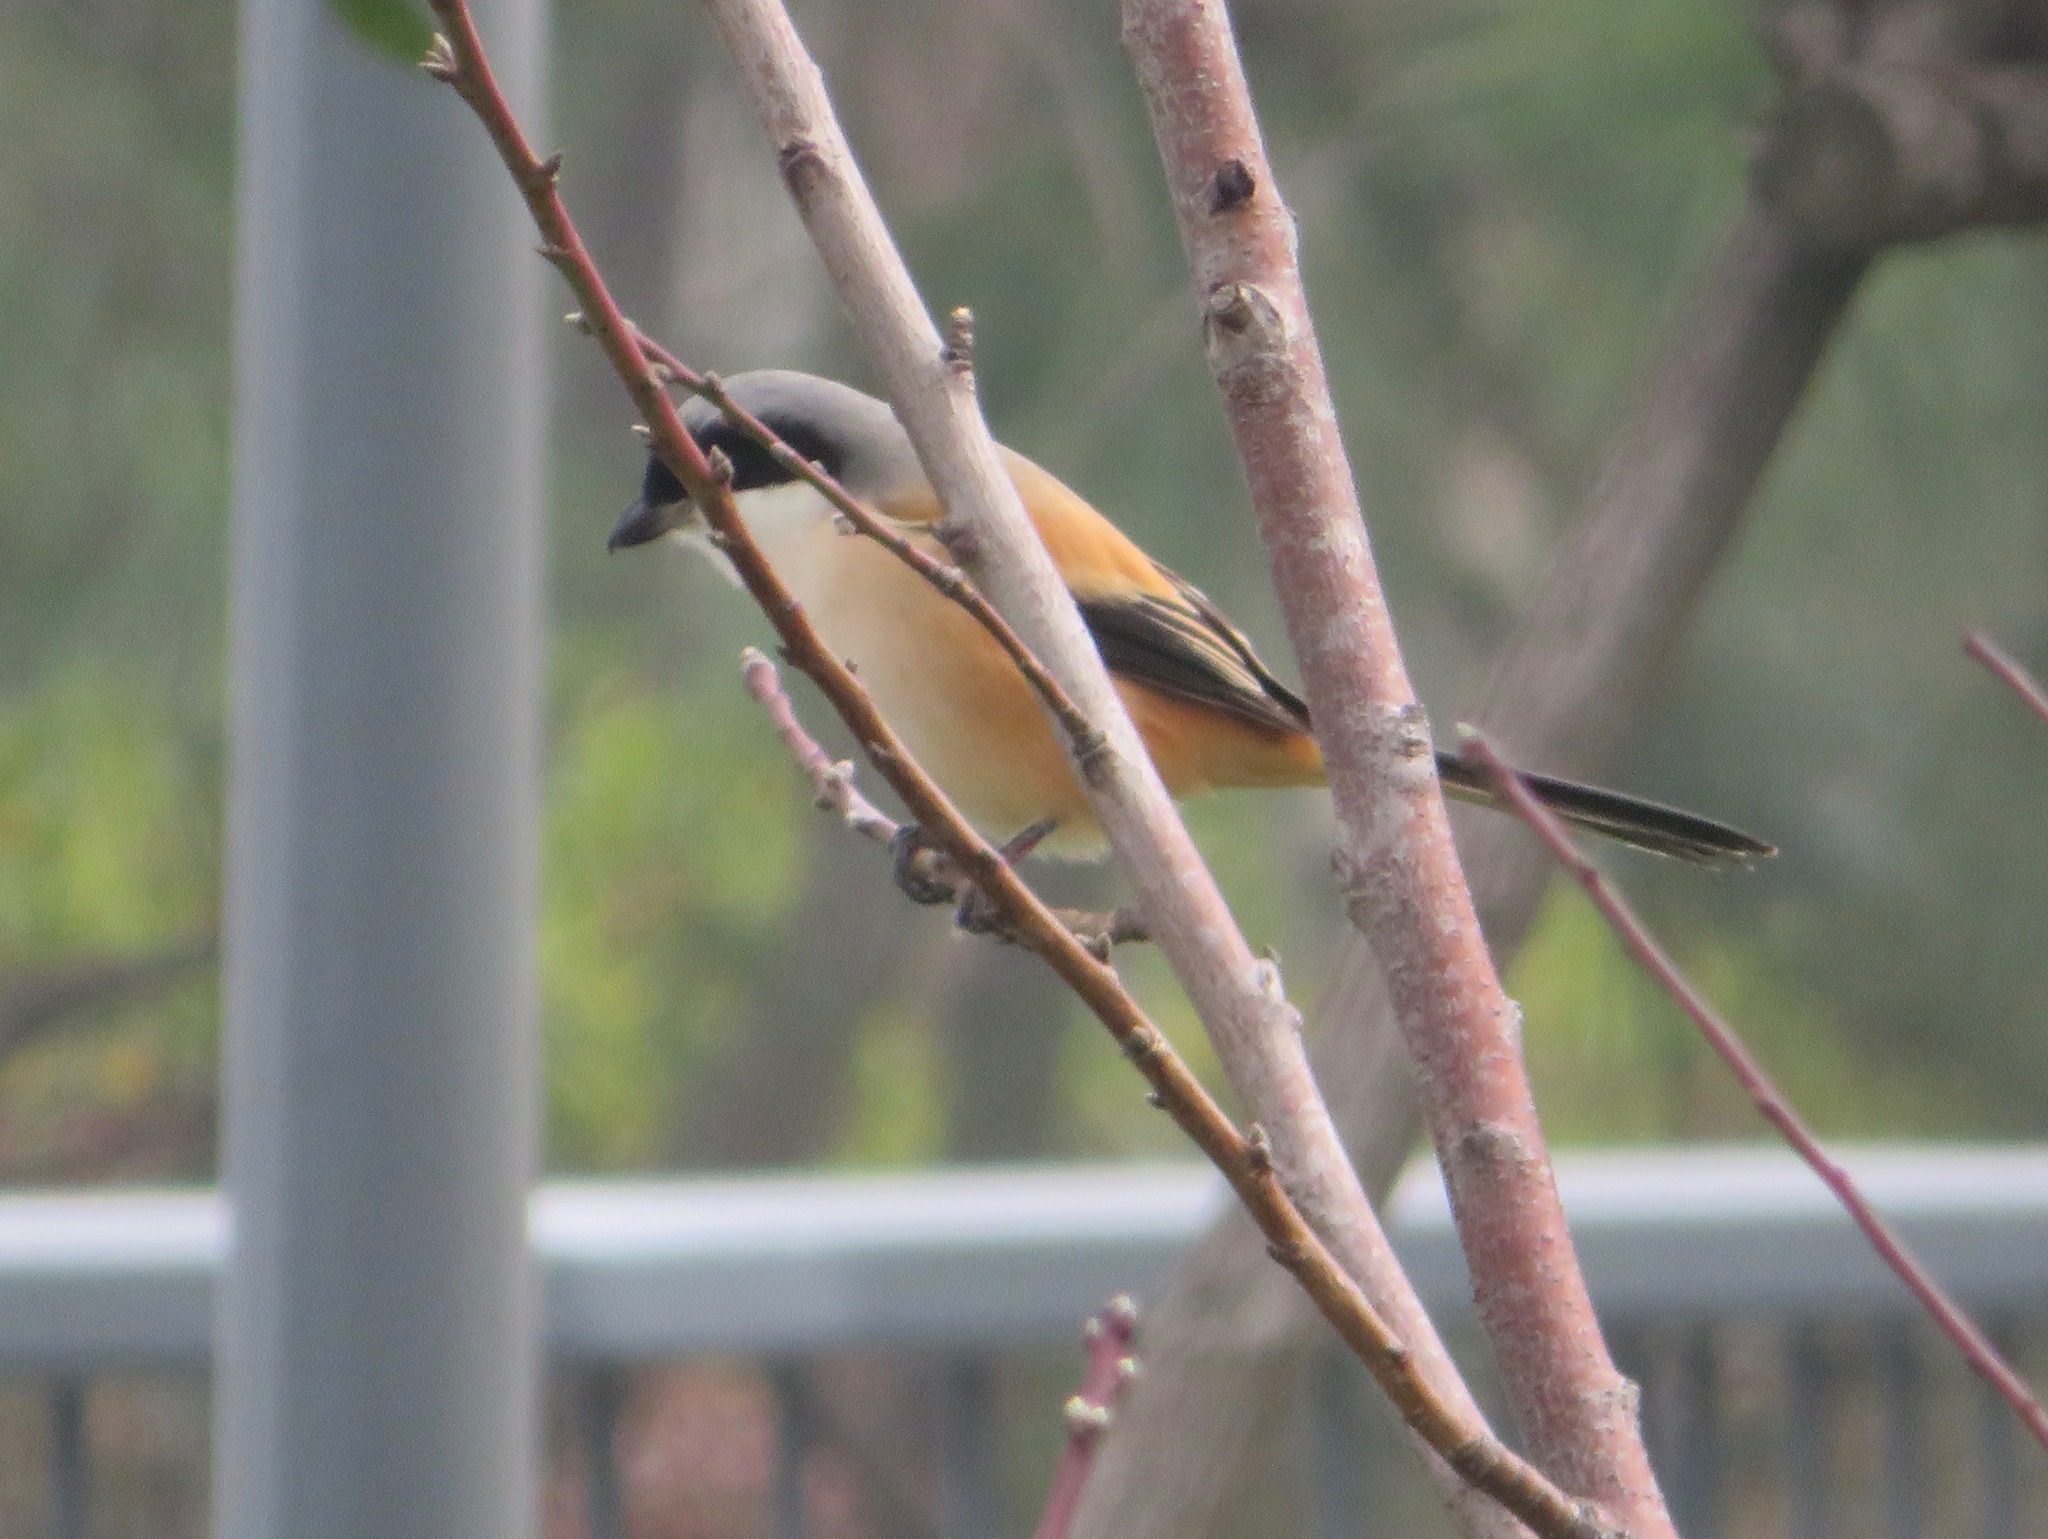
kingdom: Animalia
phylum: Chordata
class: Aves
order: Passeriformes
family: Laniidae
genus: Lanius
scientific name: Lanius schach
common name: Long-tailed shrike
